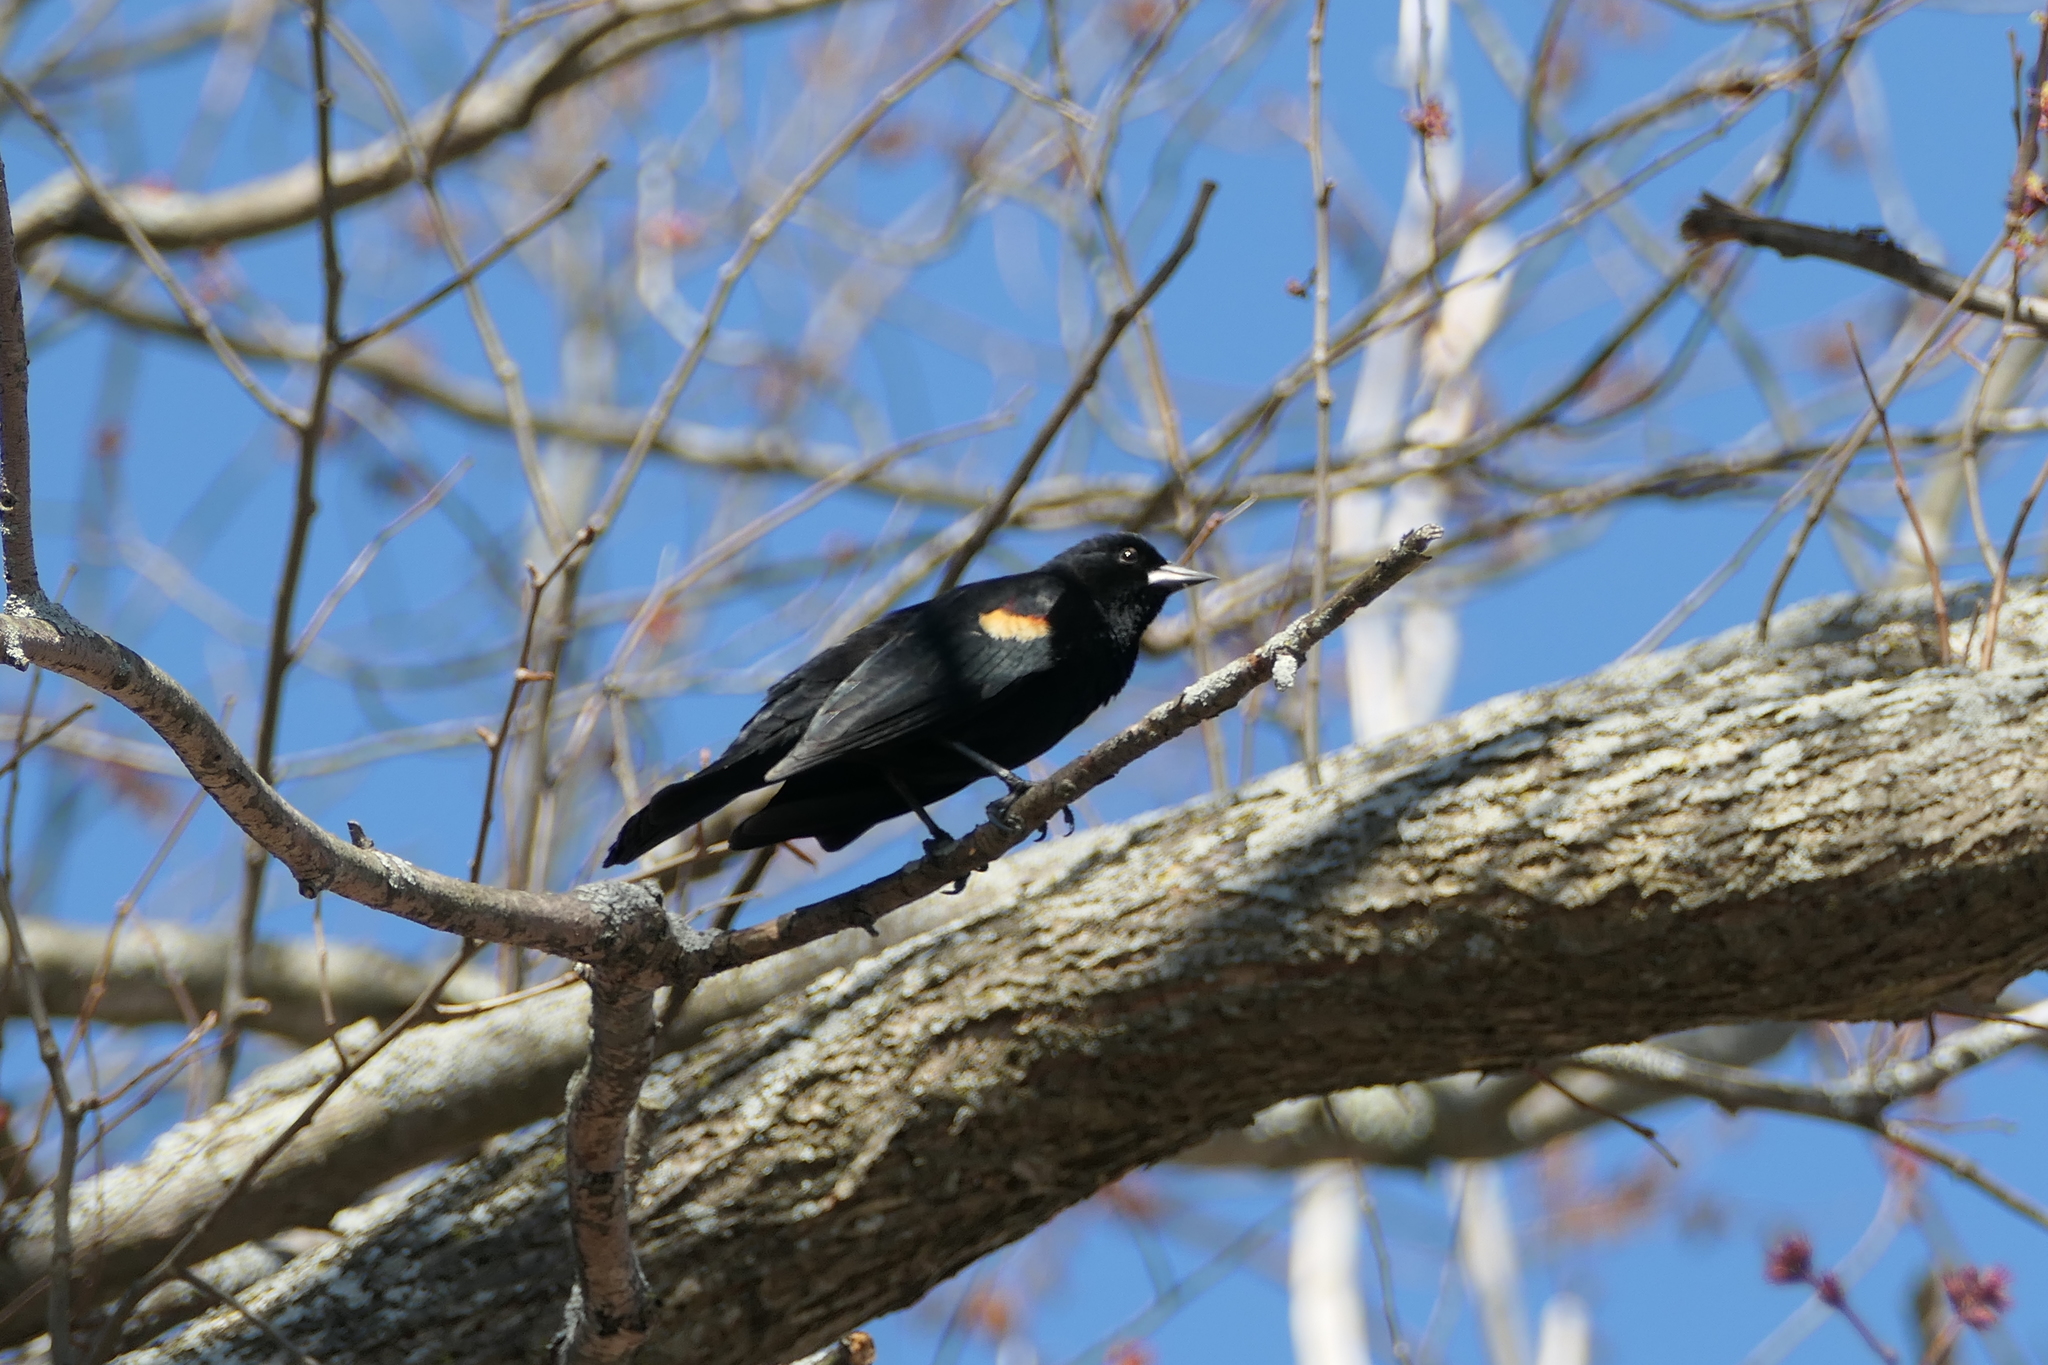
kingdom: Animalia
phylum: Chordata
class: Aves
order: Passeriformes
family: Icteridae
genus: Agelaius
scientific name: Agelaius phoeniceus
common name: Red-winged blackbird
